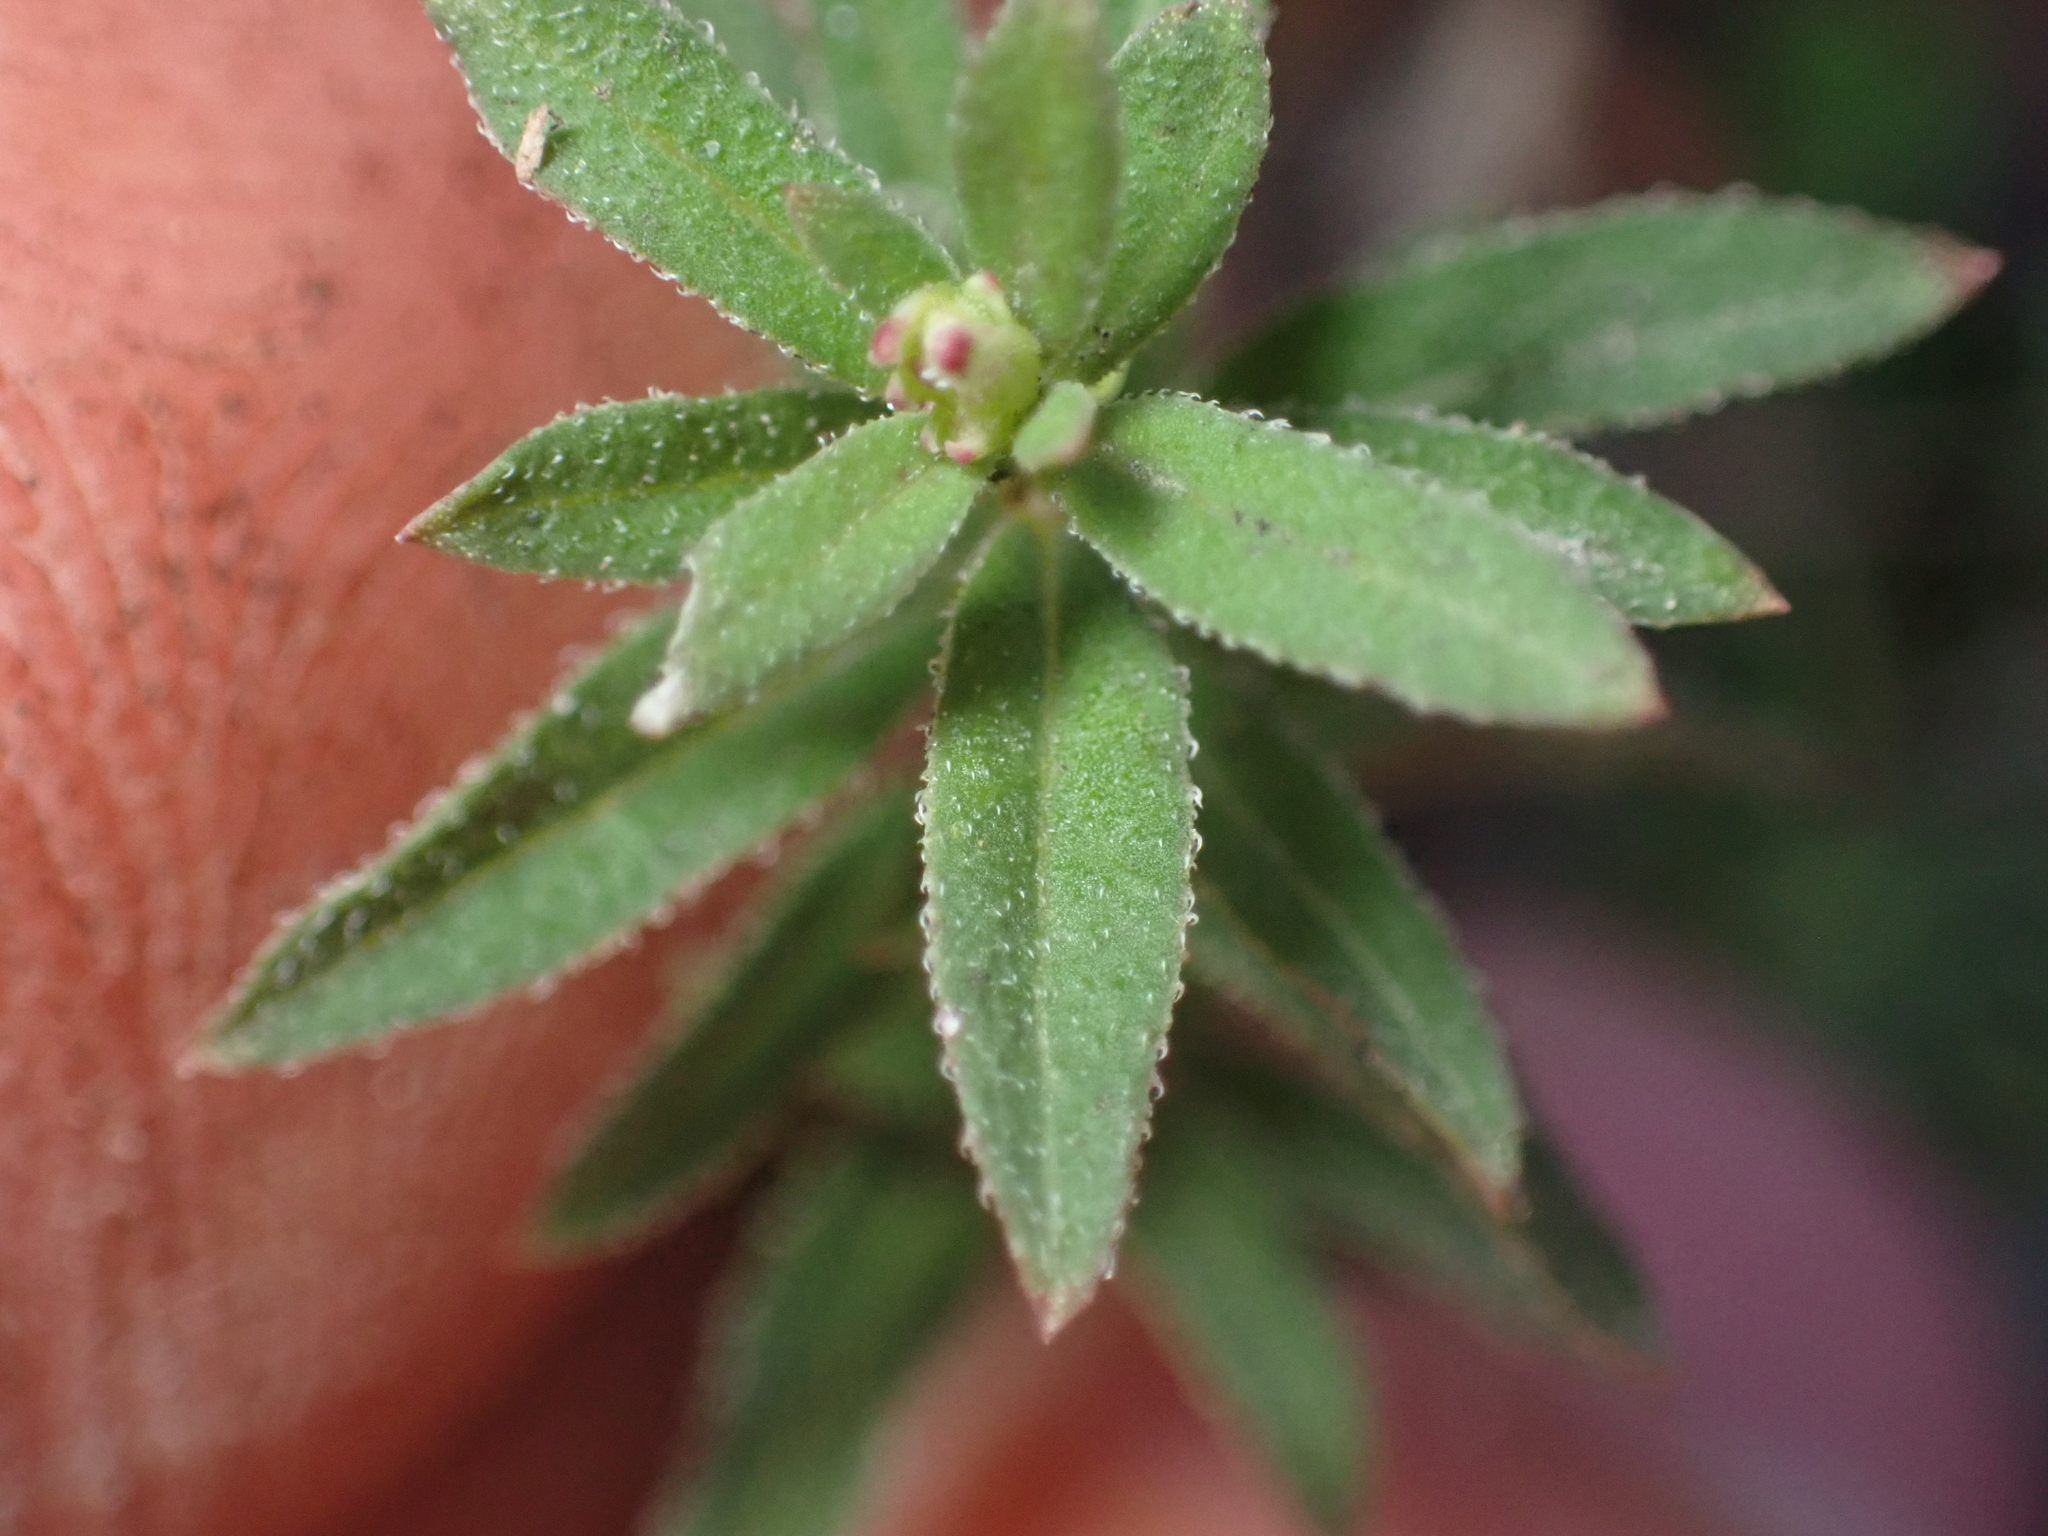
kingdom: Plantae
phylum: Tracheophyta
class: Magnoliopsida
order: Gentianales
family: Rubiaceae
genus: Galium
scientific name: Galium catalinense
